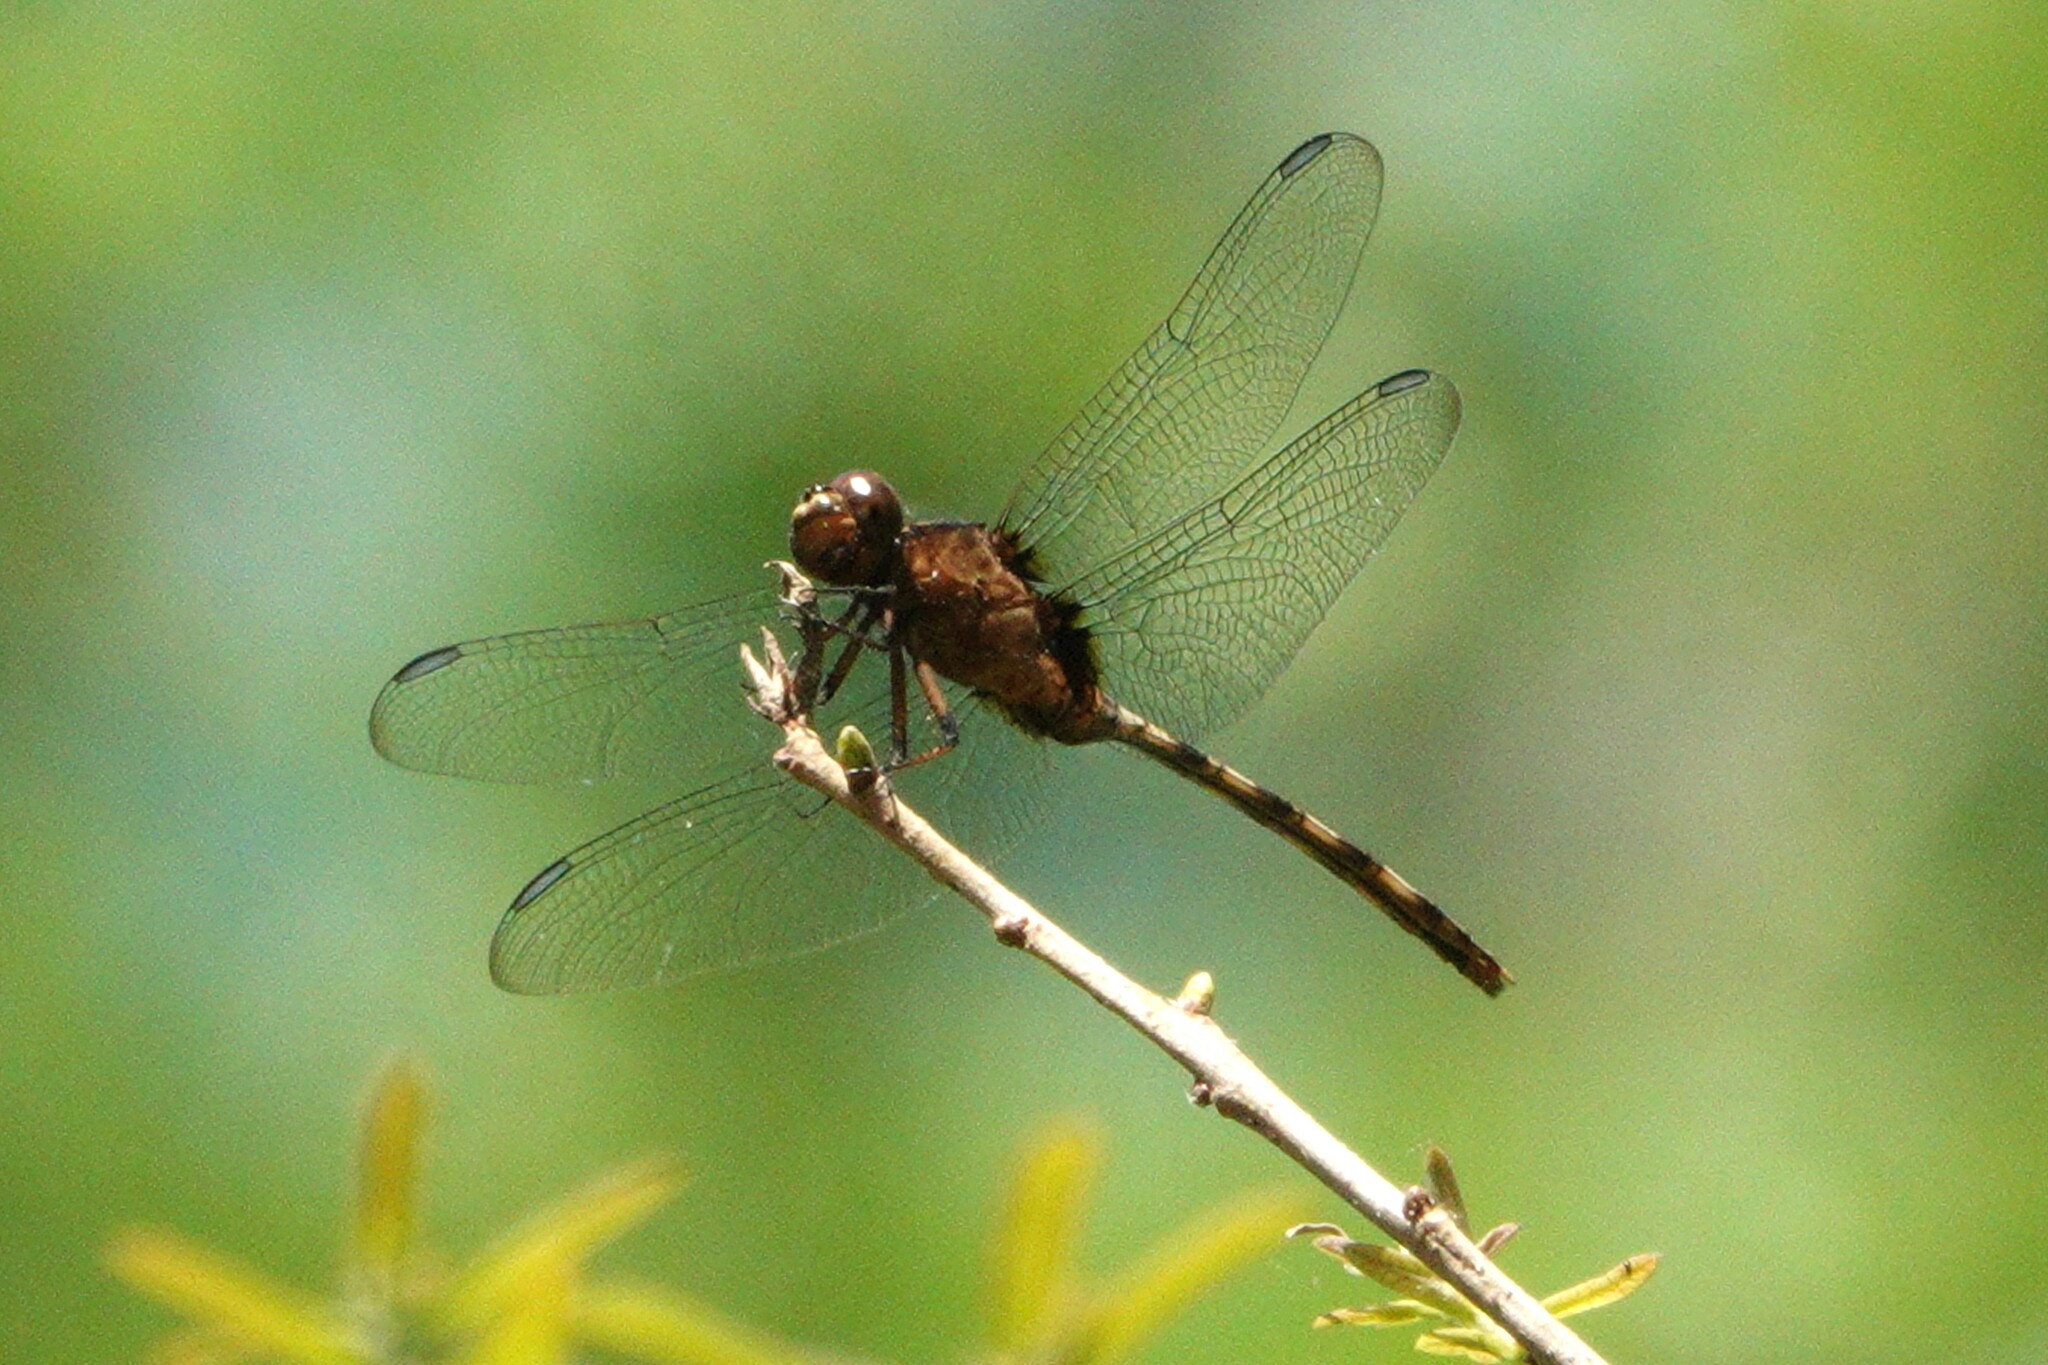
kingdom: Animalia
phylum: Arthropoda
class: Insecta
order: Odonata
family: Libellulidae
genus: Erythemis
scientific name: Erythemis plebeja
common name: Pin-tailed pondhawk
